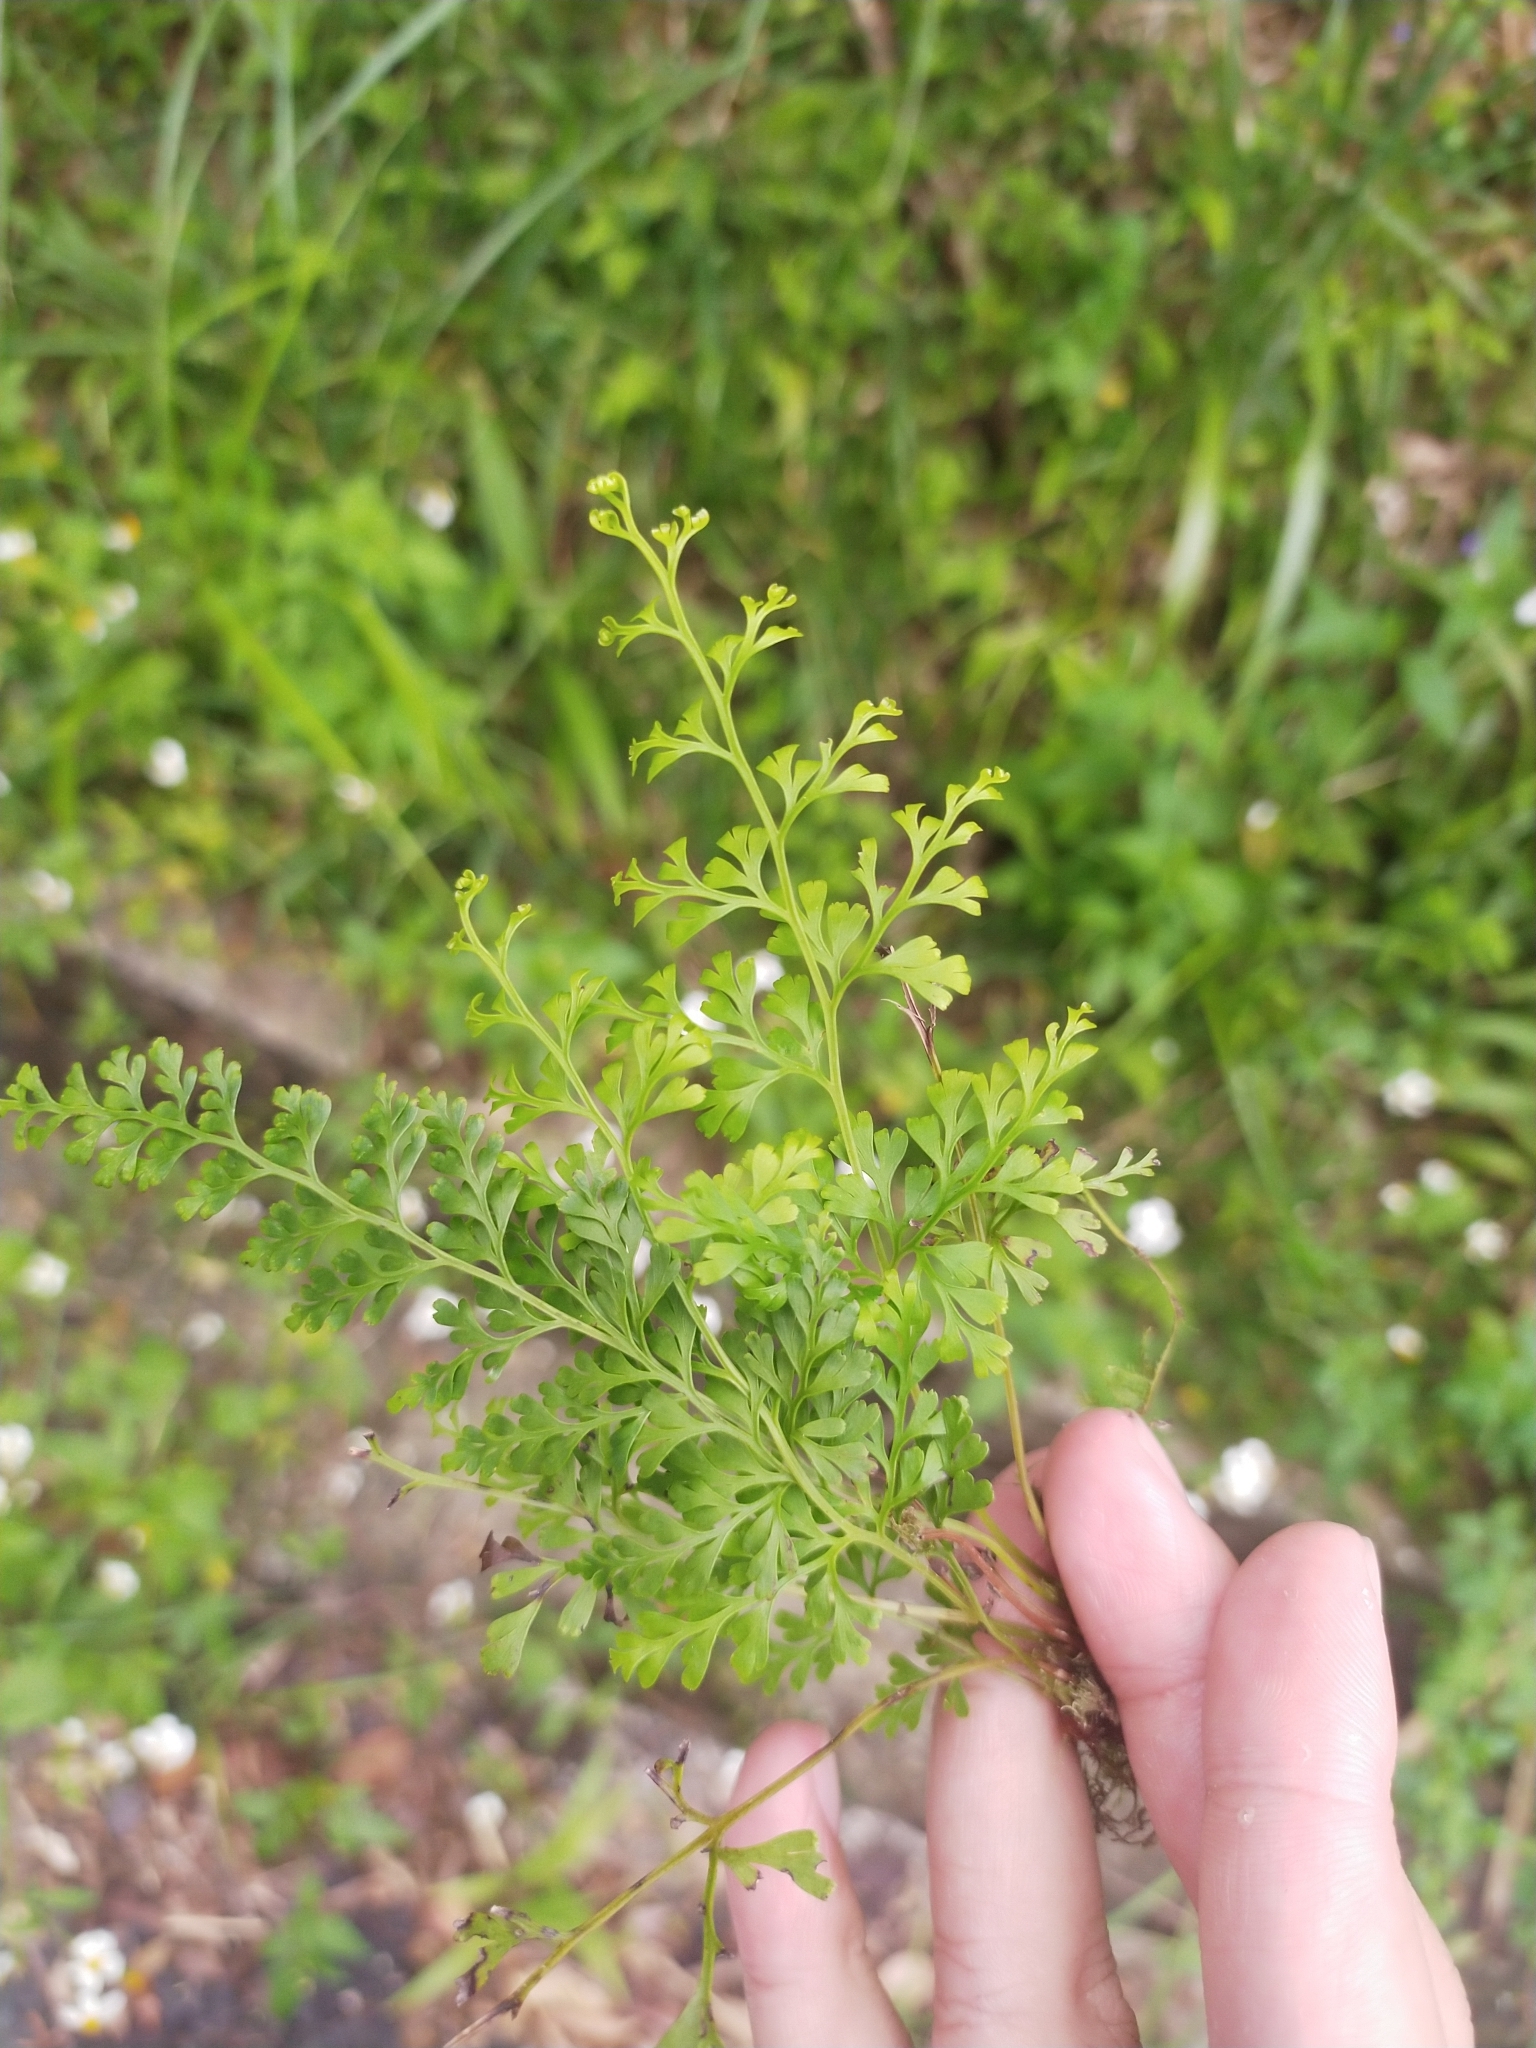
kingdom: Plantae
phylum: Tracheophyta
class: Polypodiopsida
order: Polypodiales
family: Lindsaeaceae
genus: Odontosoria
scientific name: Odontosoria chinensis
